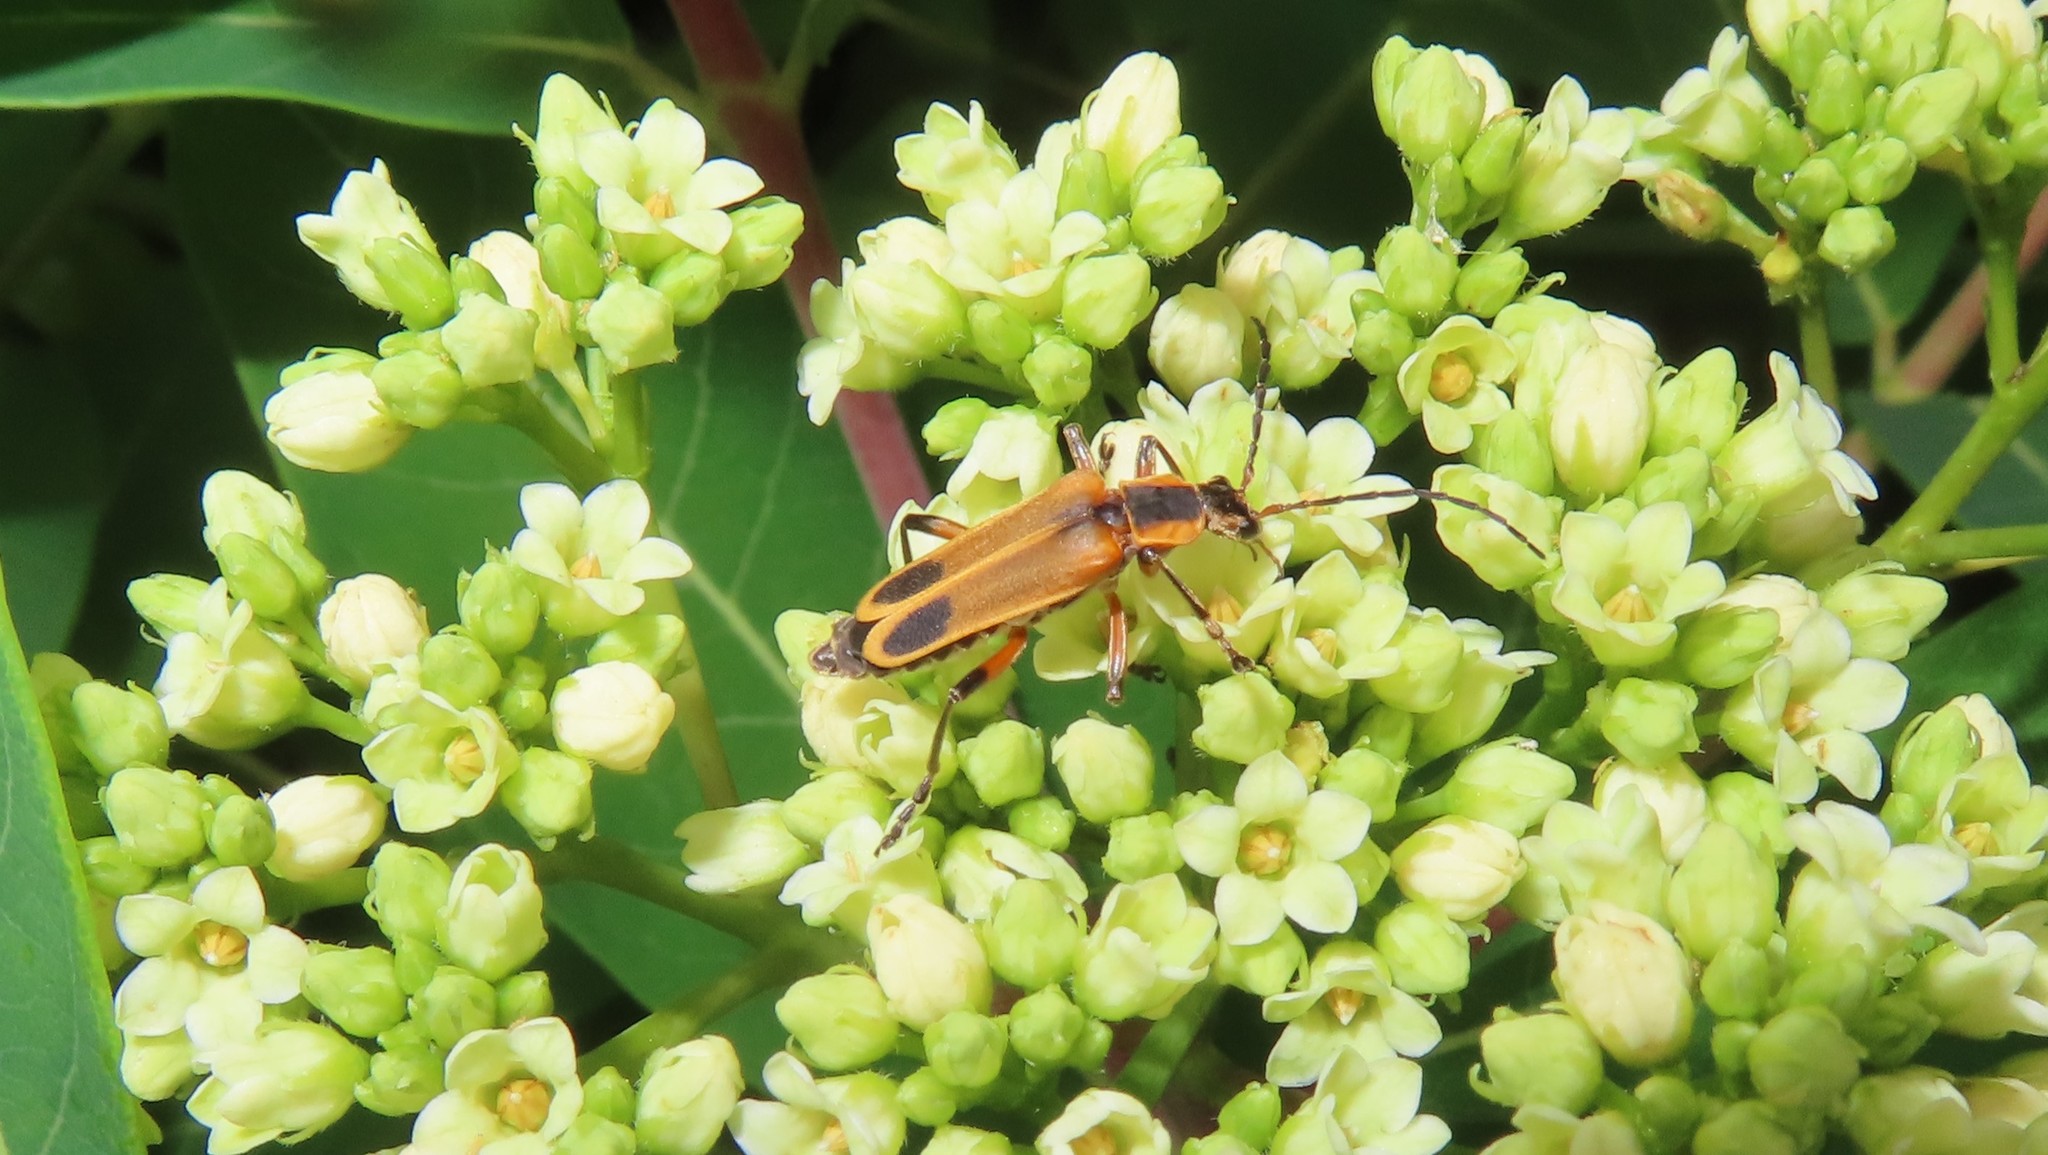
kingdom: Animalia
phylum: Arthropoda
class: Insecta
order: Coleoptera
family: Cantharidae
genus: Chauliognathus
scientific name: Chauliognathus marginatus
